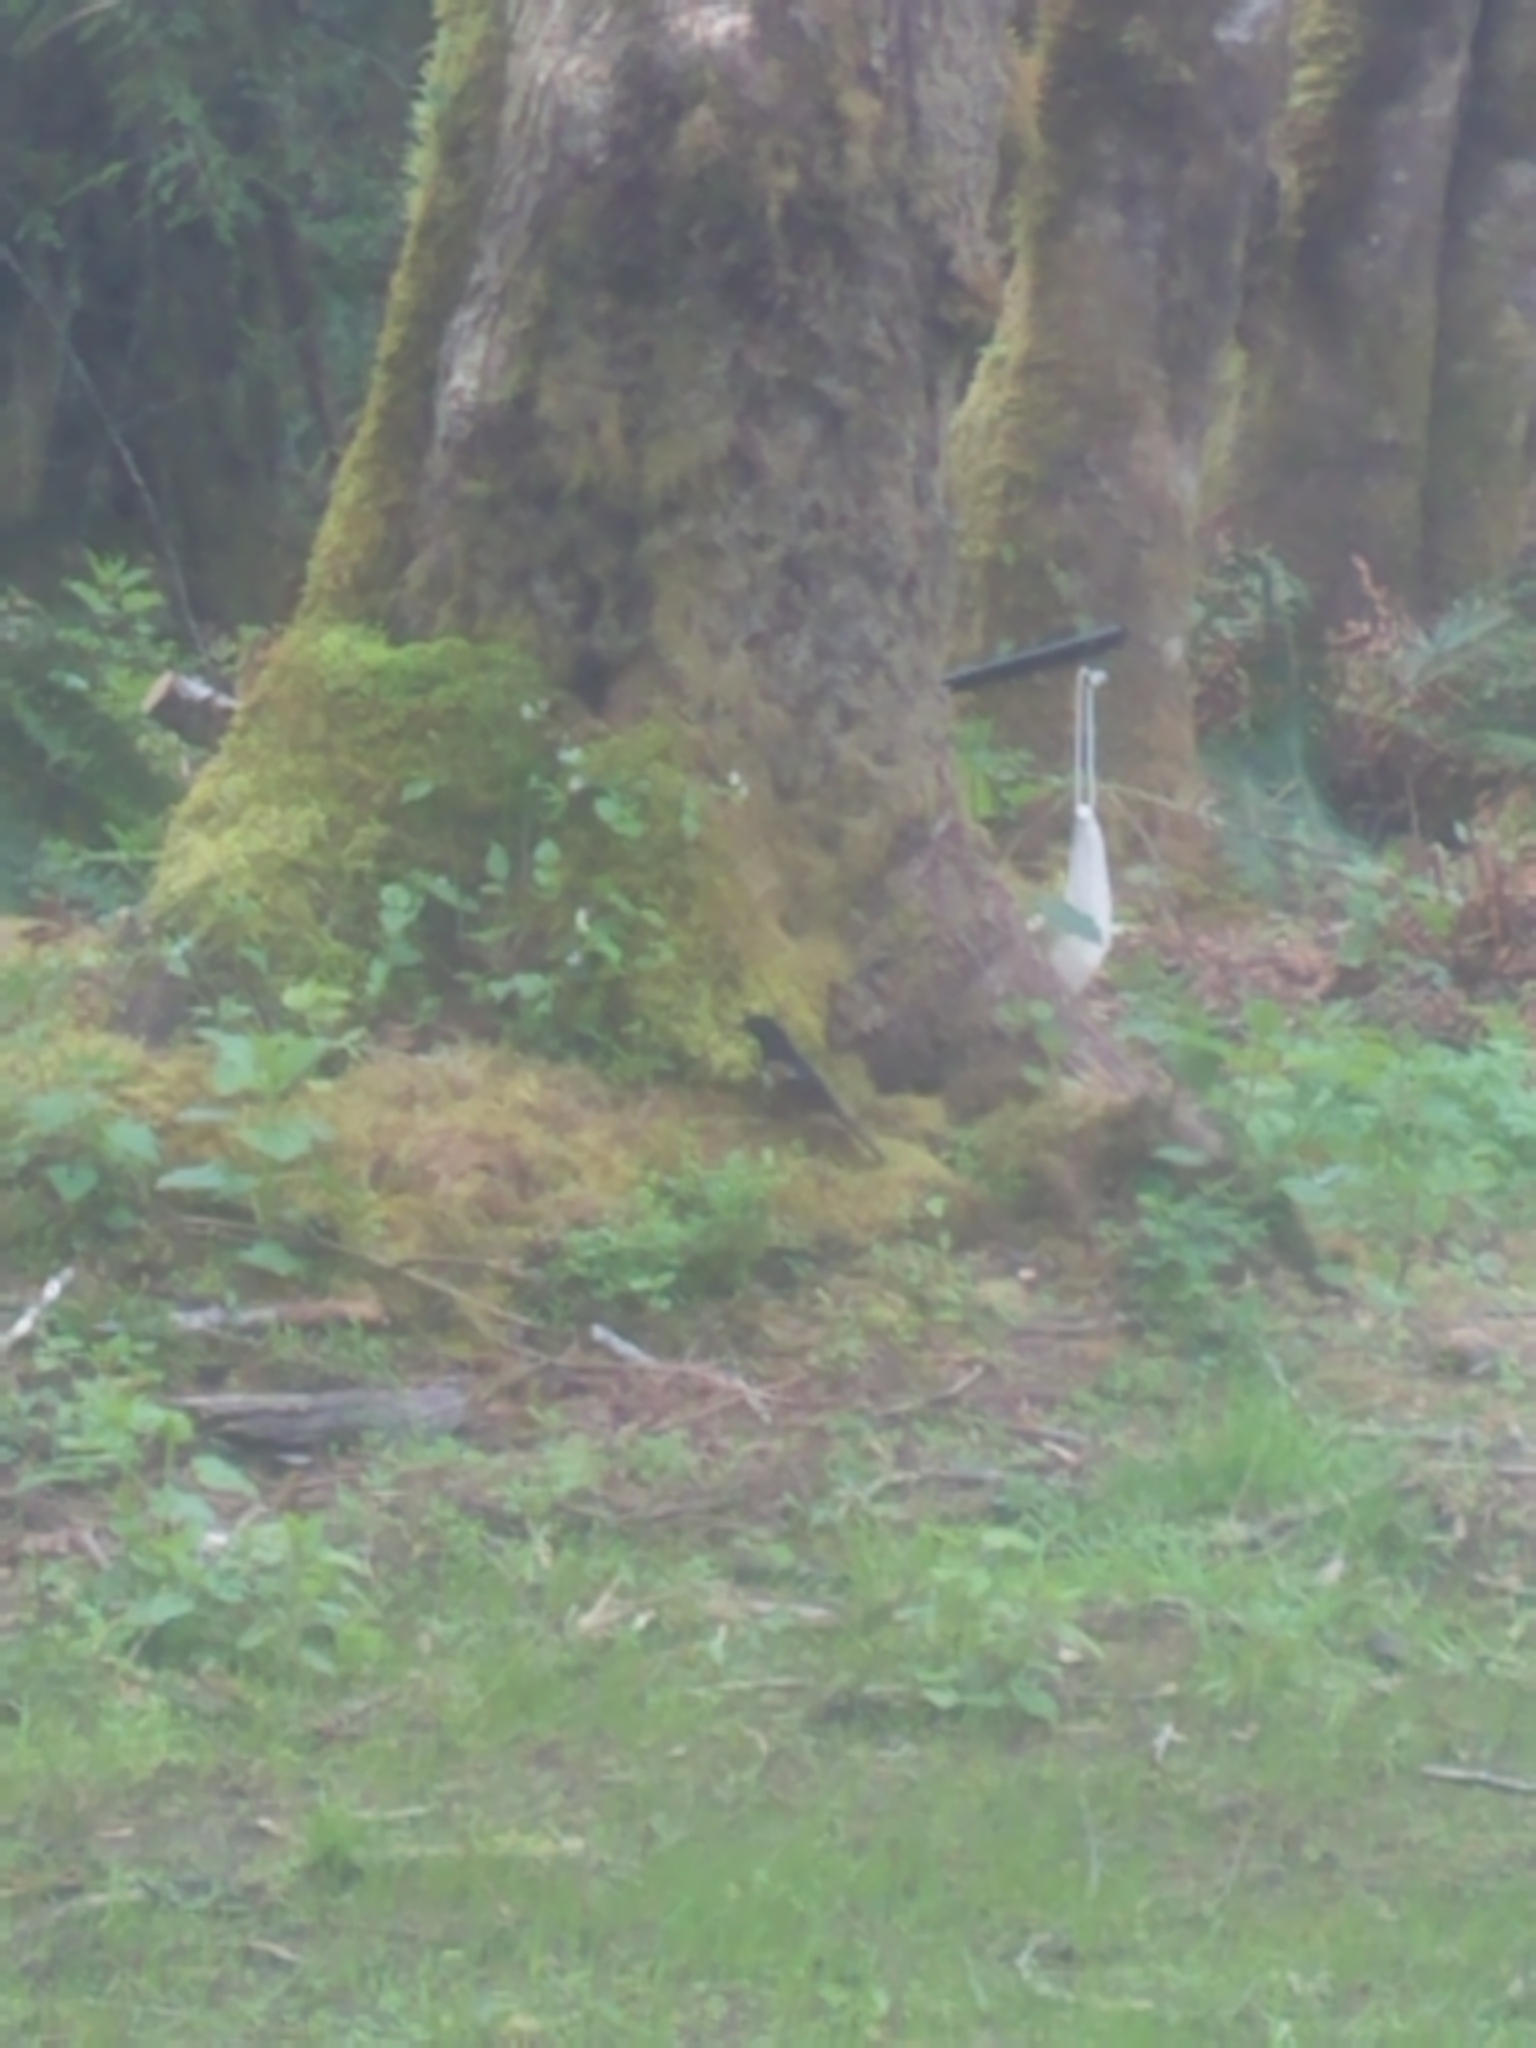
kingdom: Animalia
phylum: Chordata
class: Aves
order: Passeriformes
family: Passerellidae
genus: Pipilo
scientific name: Pipilo maculatus
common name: Spotted towhee
